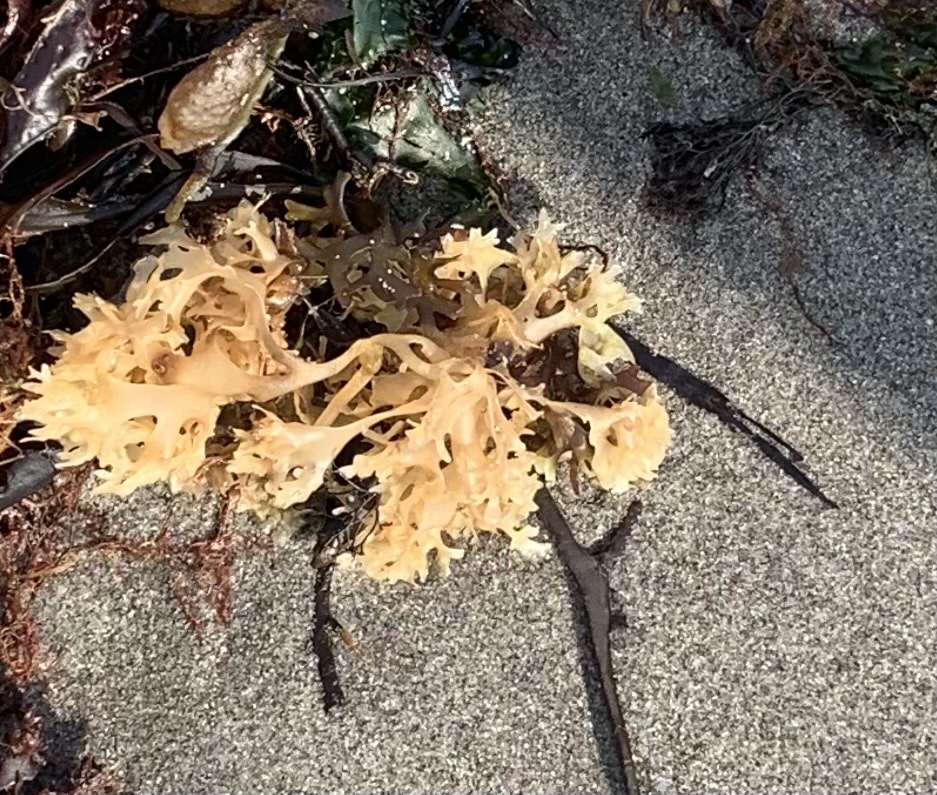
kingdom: Plantae
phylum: Rhodophyta
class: Florideophyceae
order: Gigartinales
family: Gigartinaceae
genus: Chondrus
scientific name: Chondrus crispus
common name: Carrageen
